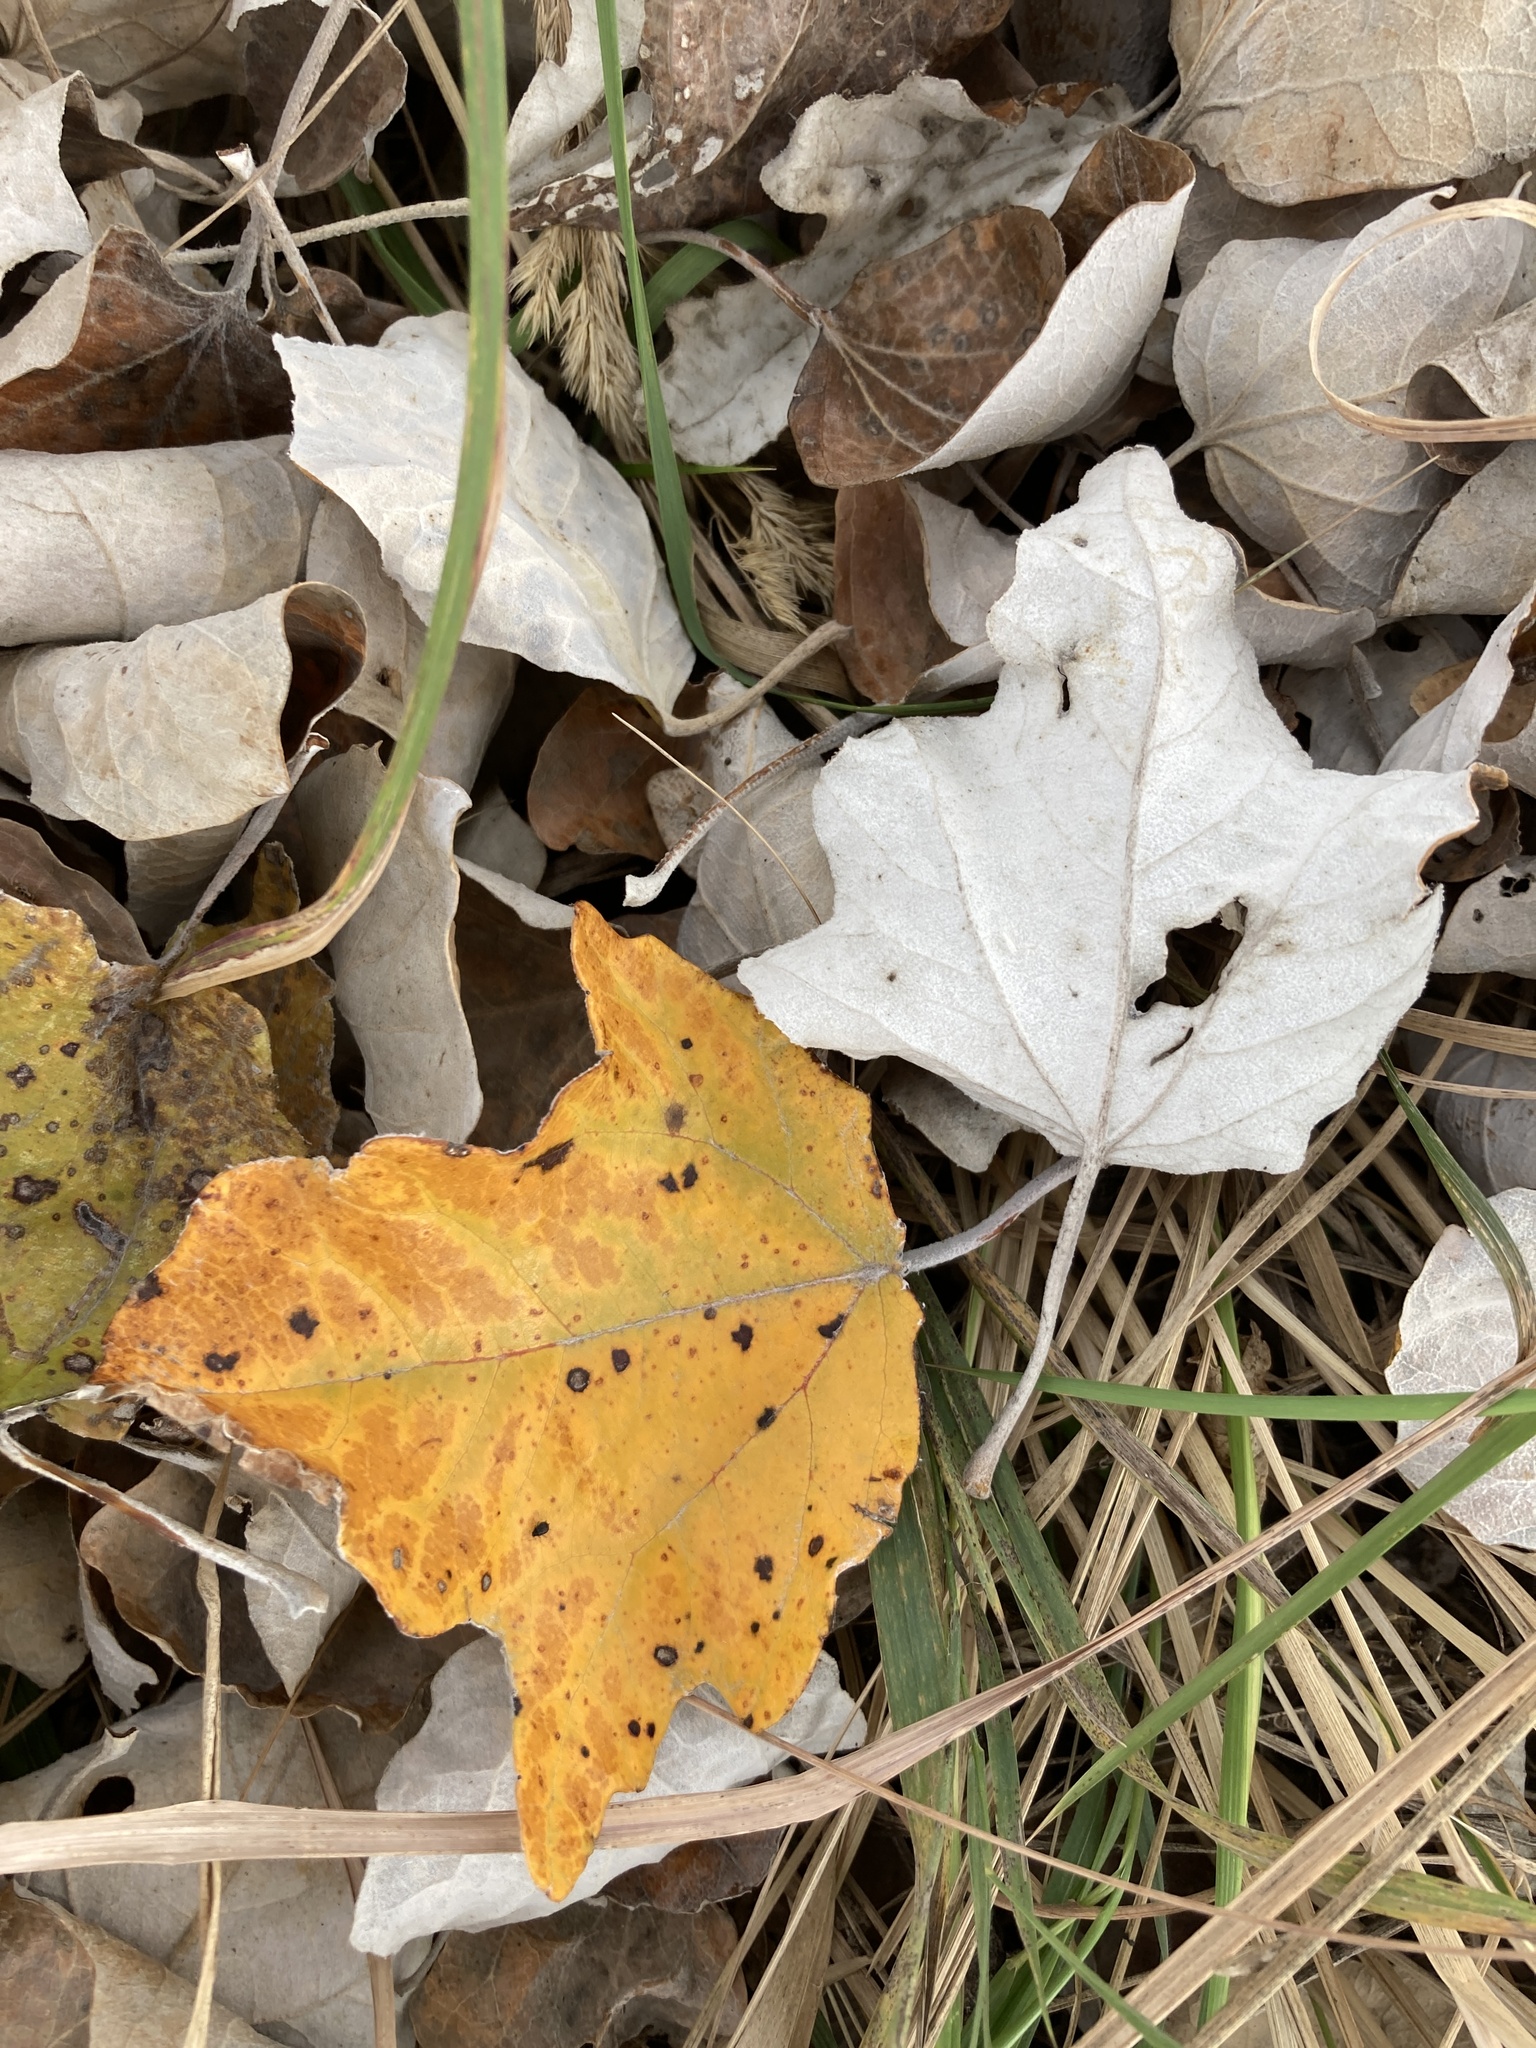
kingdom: Plantae
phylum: Tracheophyta
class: Magnoliopsida
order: Malpighiales
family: Salicaceae
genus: Populus
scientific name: Populus alba
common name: White poplar
